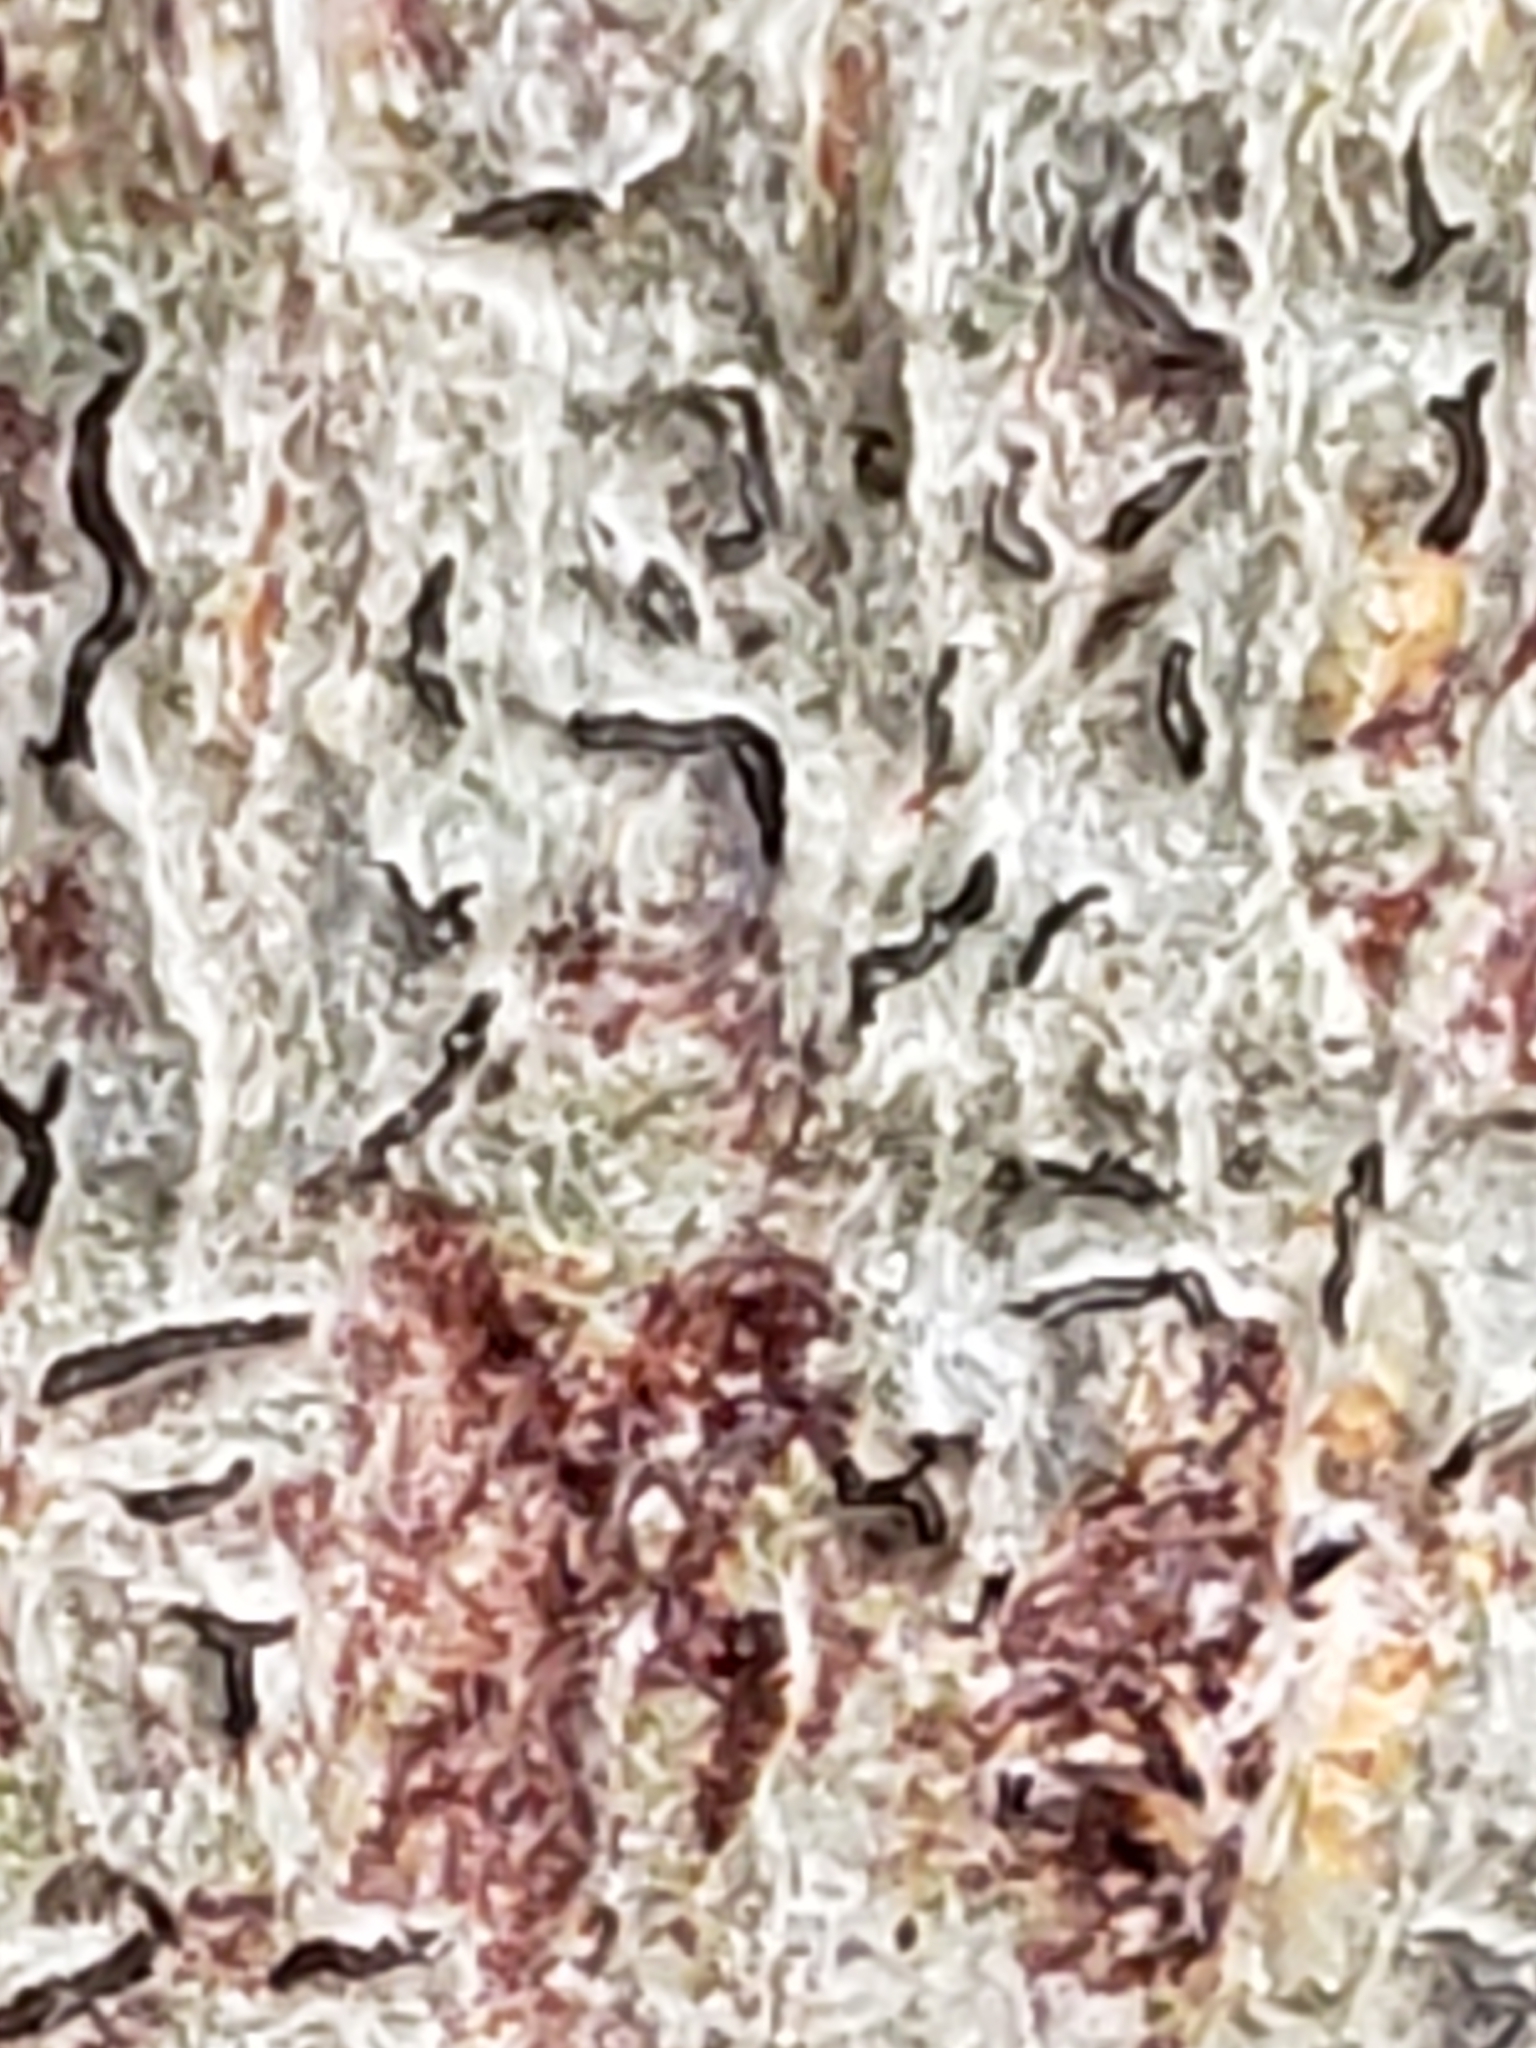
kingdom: Fungi
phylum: Ascomycota
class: Lecanoromycetes
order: Ostropales
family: Graphidaceae
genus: Graphis
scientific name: Graphis scripta
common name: Script lichen
